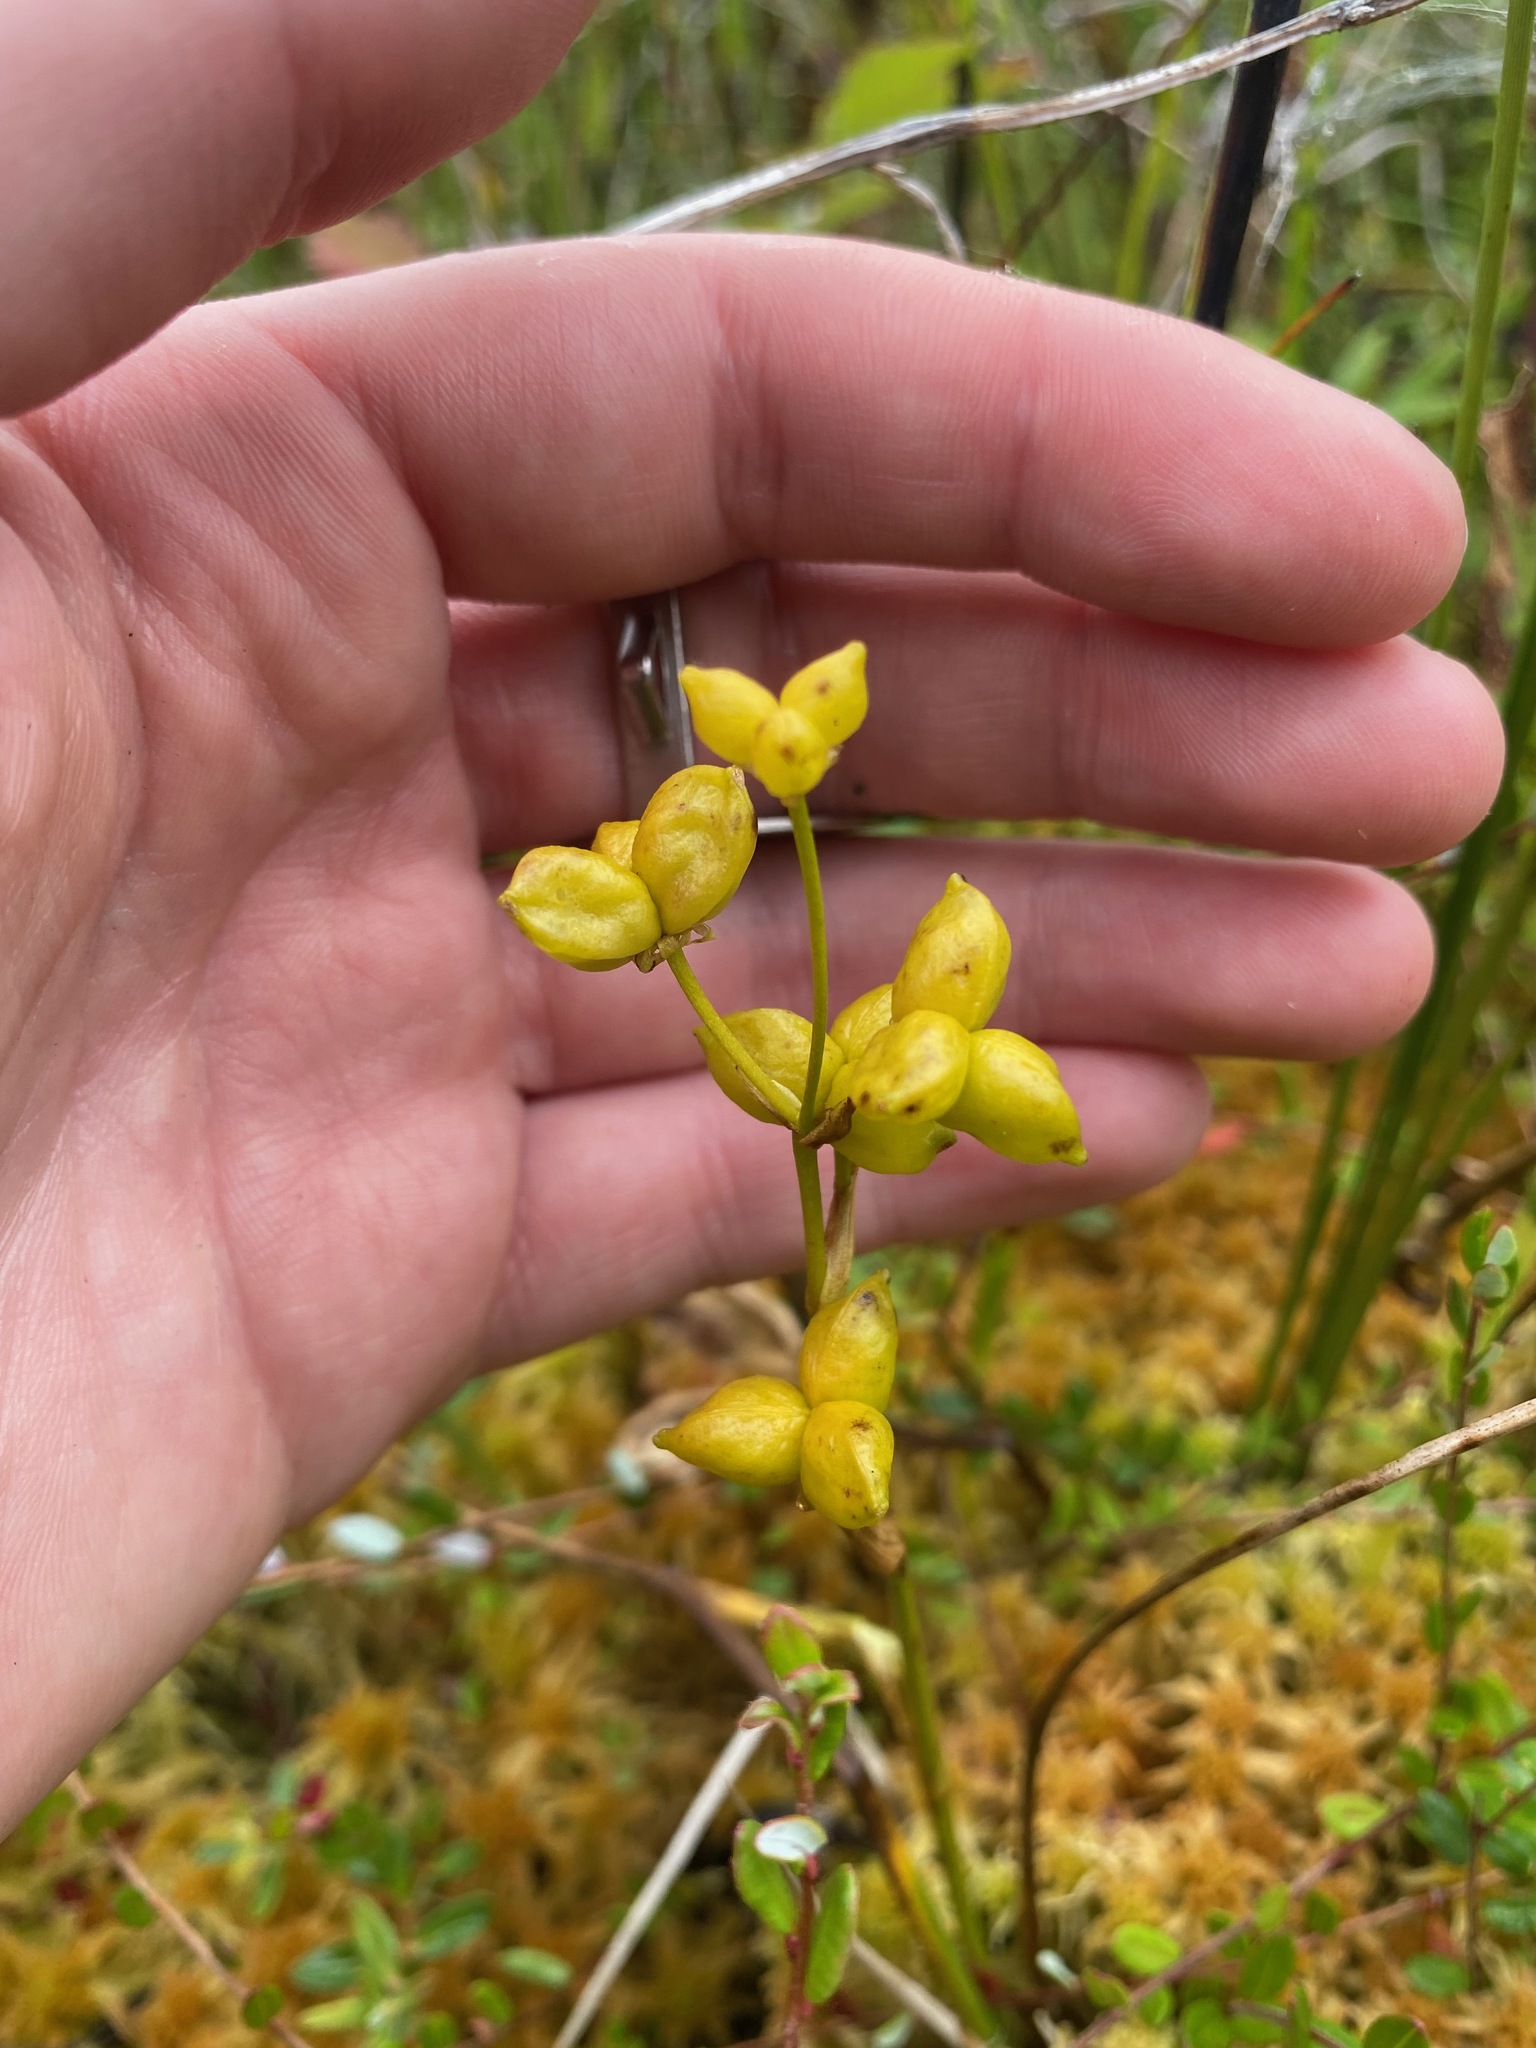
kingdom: Plantae
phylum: Tracheophyta
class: Liliopsida
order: Alismatales
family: Scheuchzeriaceae
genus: Scheuchzeria
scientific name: Scheuchzeria palustris
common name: Rannoch-rush
